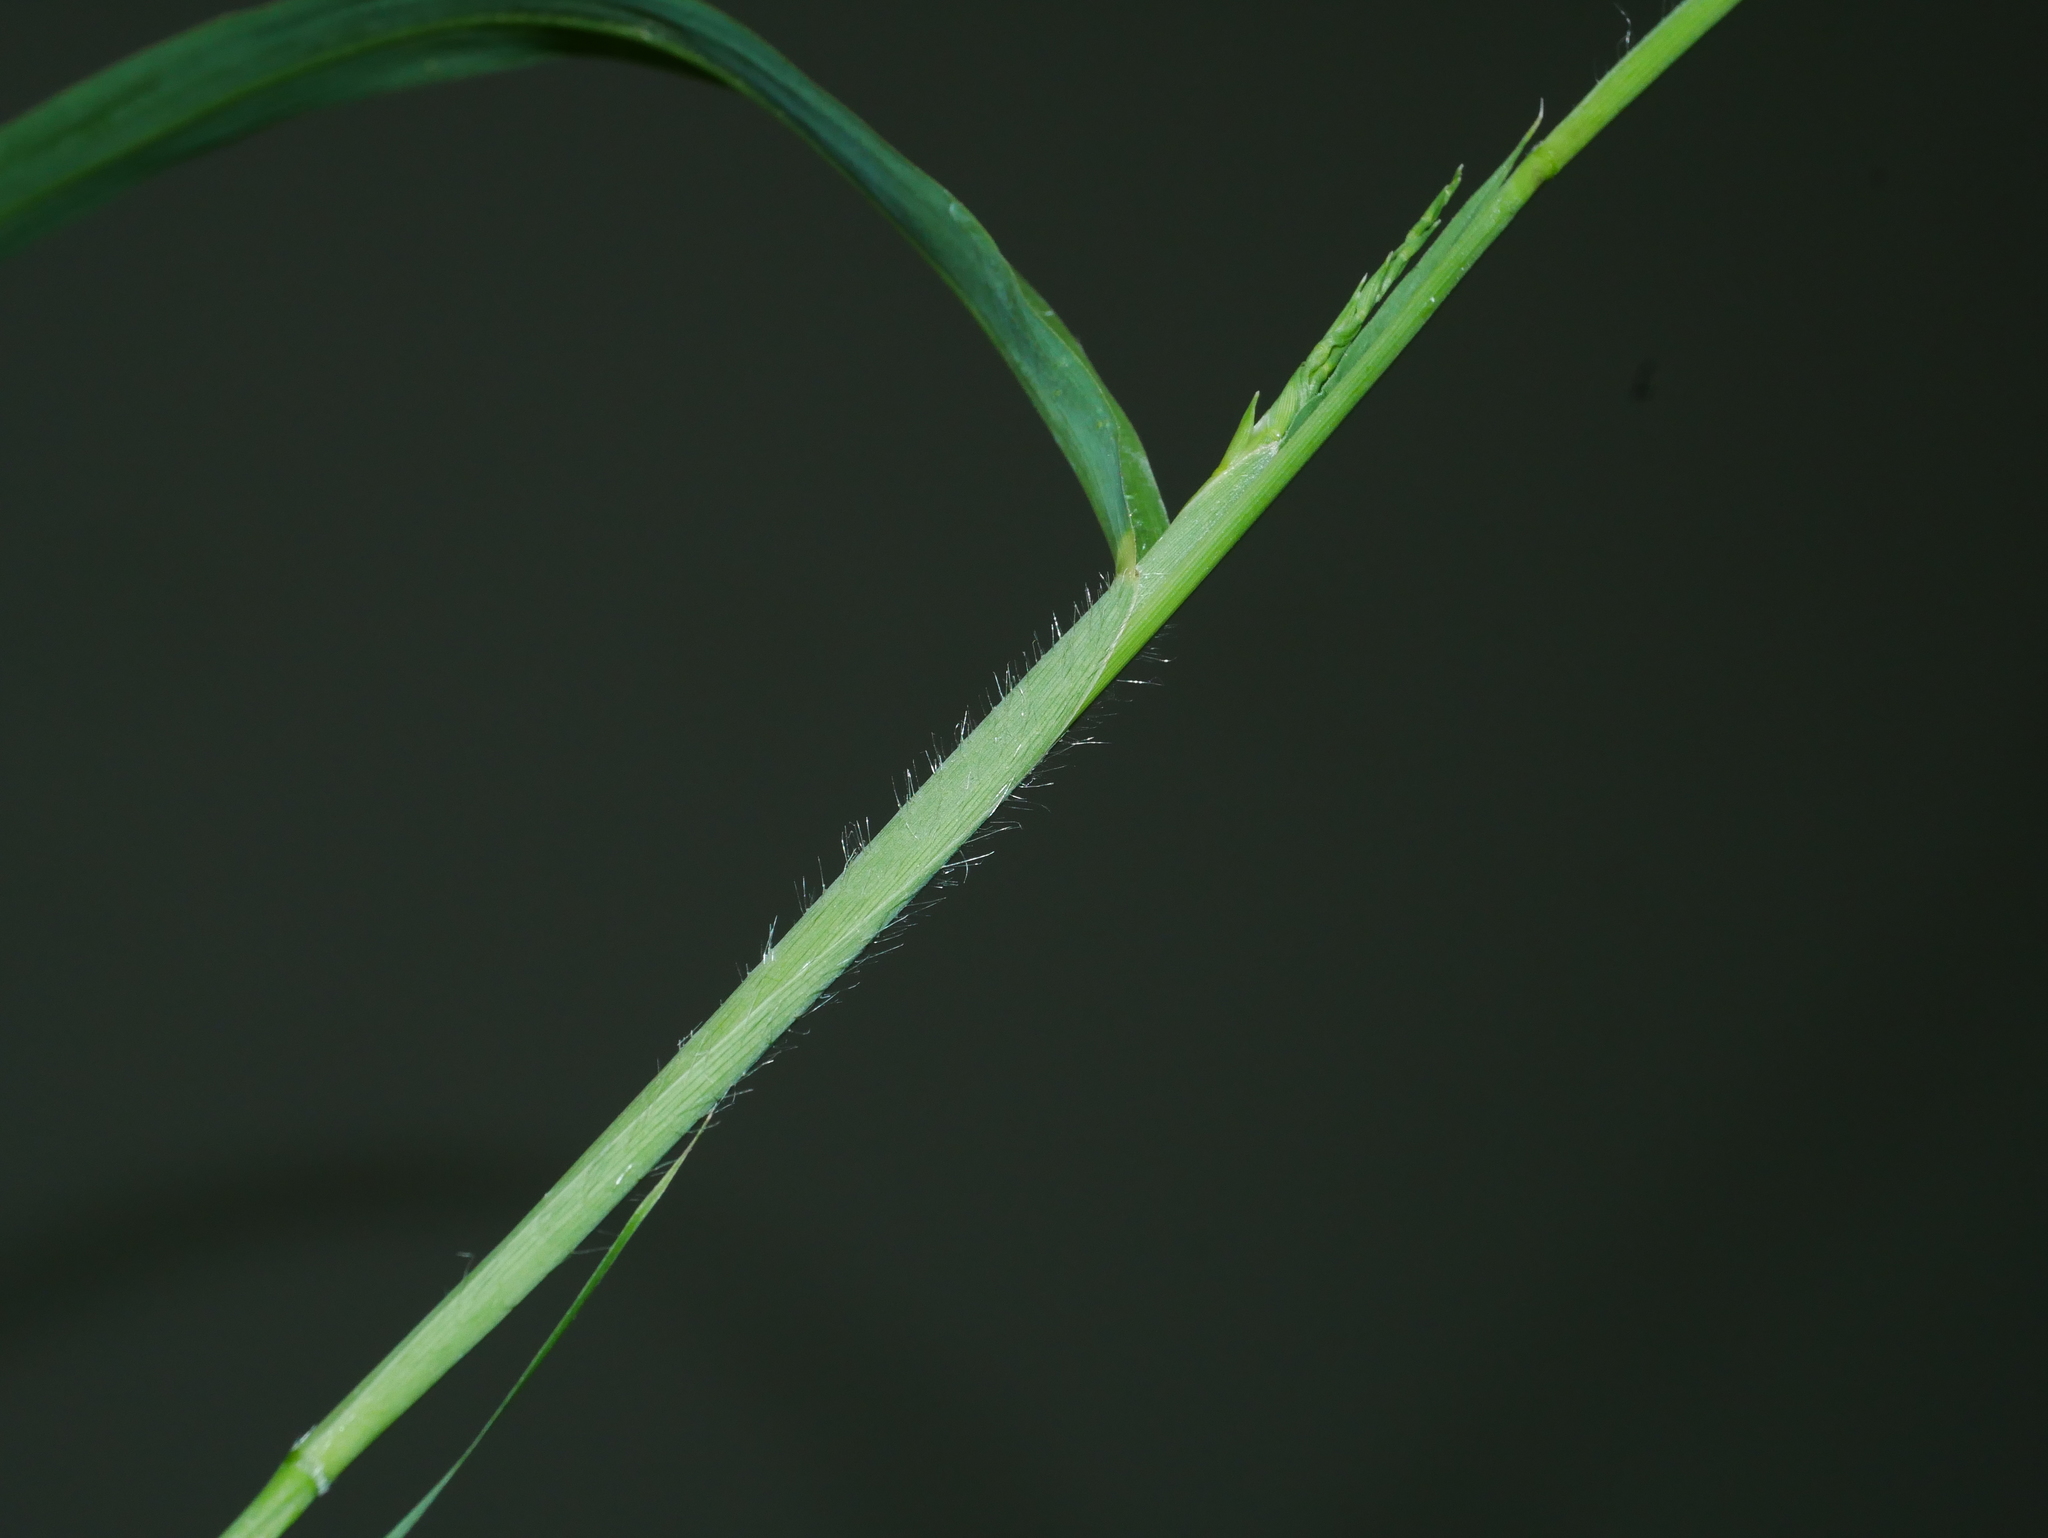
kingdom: Plantae
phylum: Tracheophyta
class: Liliopsida
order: Poales
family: Poaceae
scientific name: Poaceae
